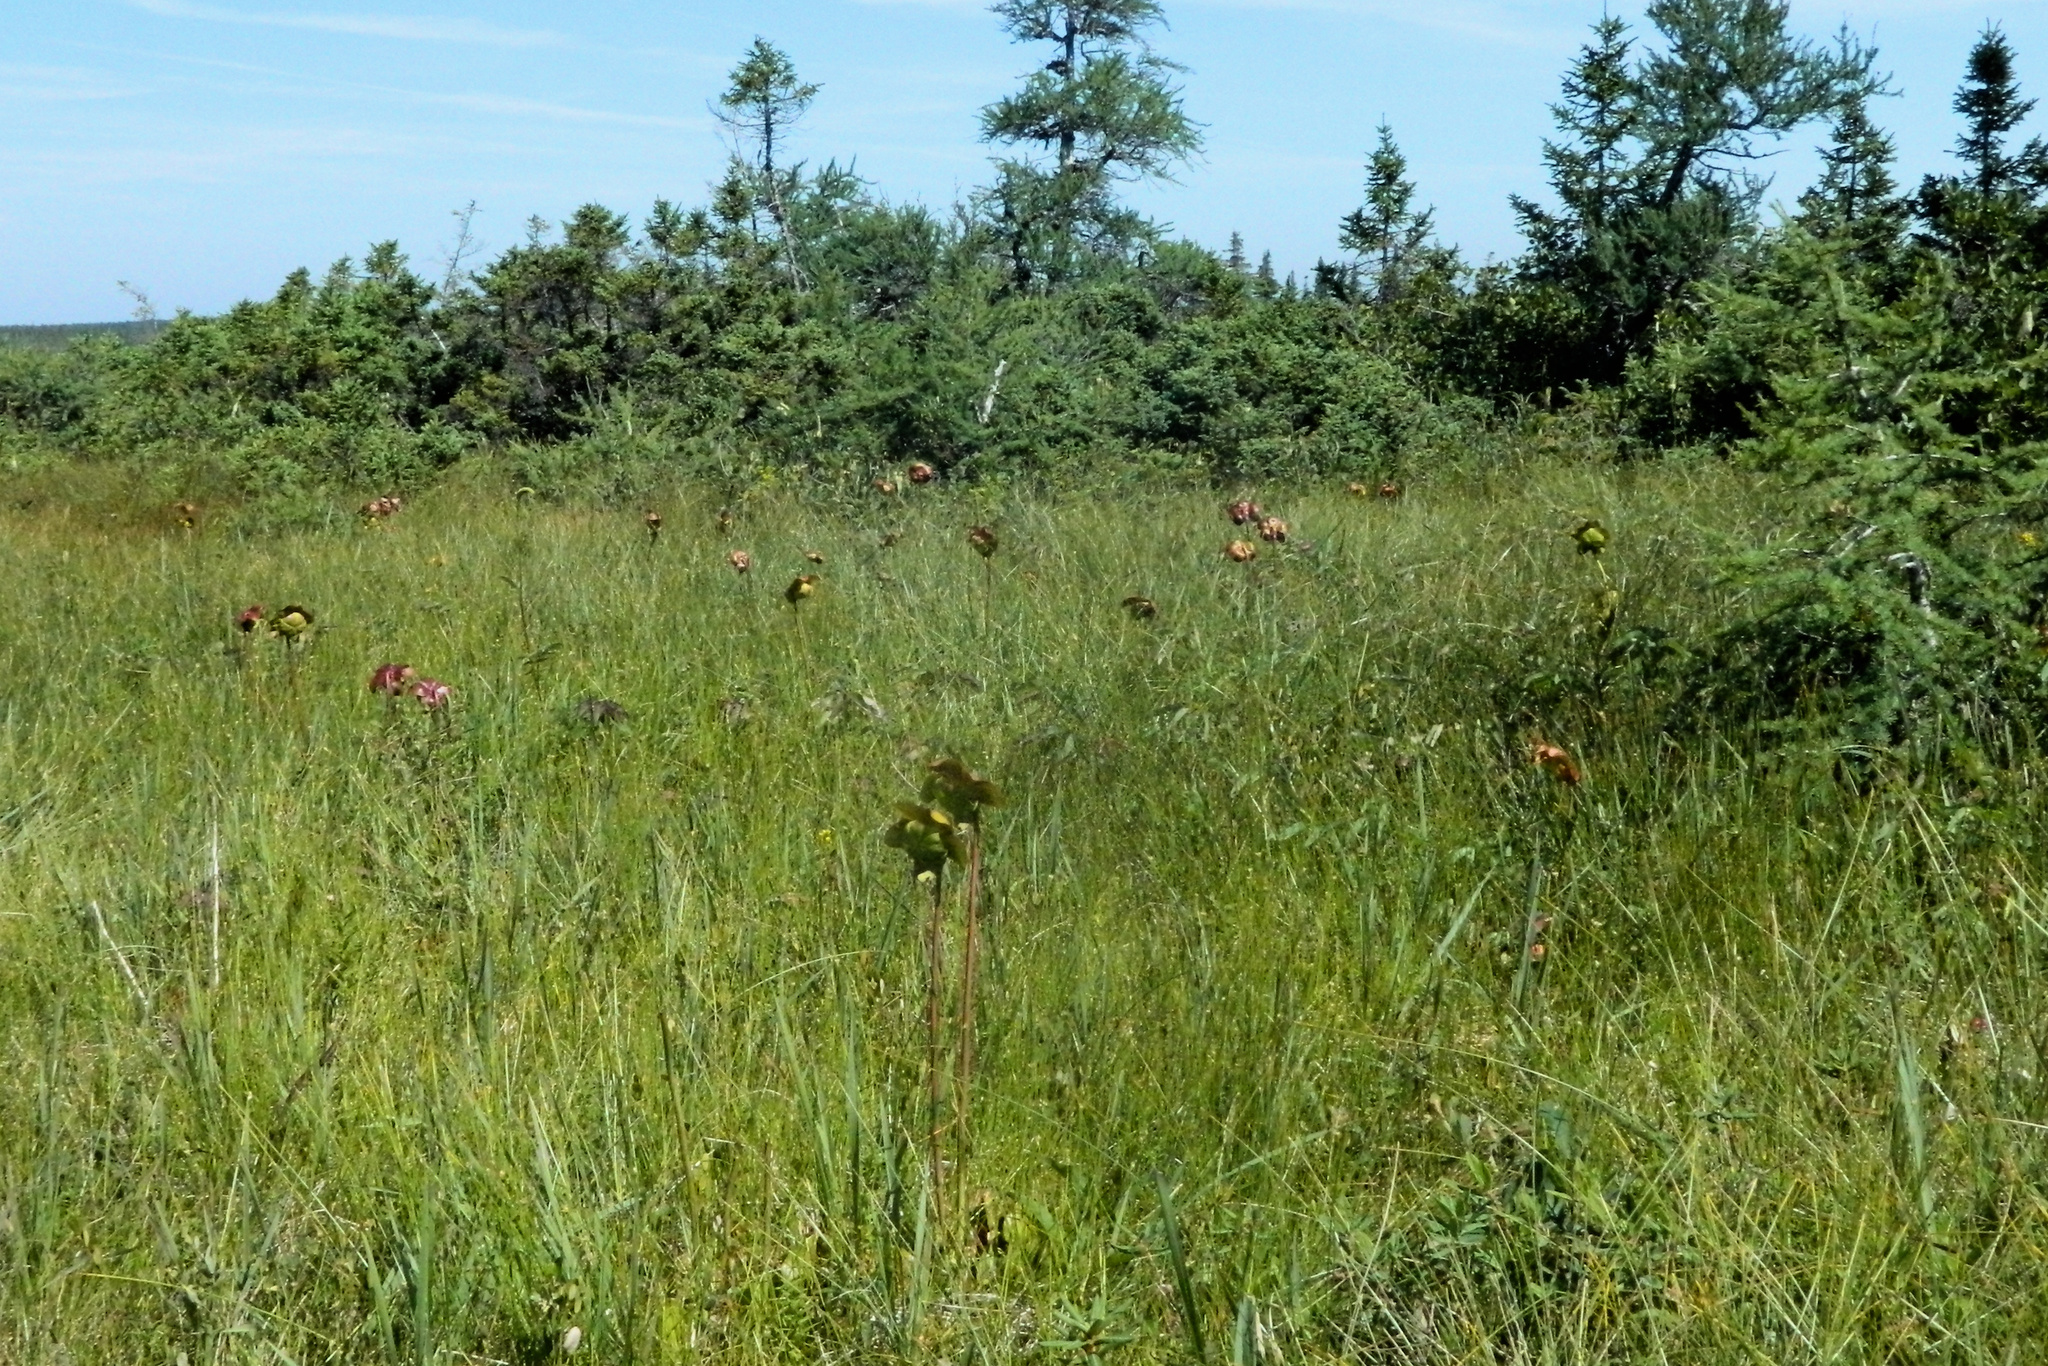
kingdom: Plantae
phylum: Tracheophyta
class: Magnoliopsida
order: Ericales
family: Sarraceniaceae
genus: Sarracenia
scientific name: Sarracenia purpurea
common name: Pitcherplant
